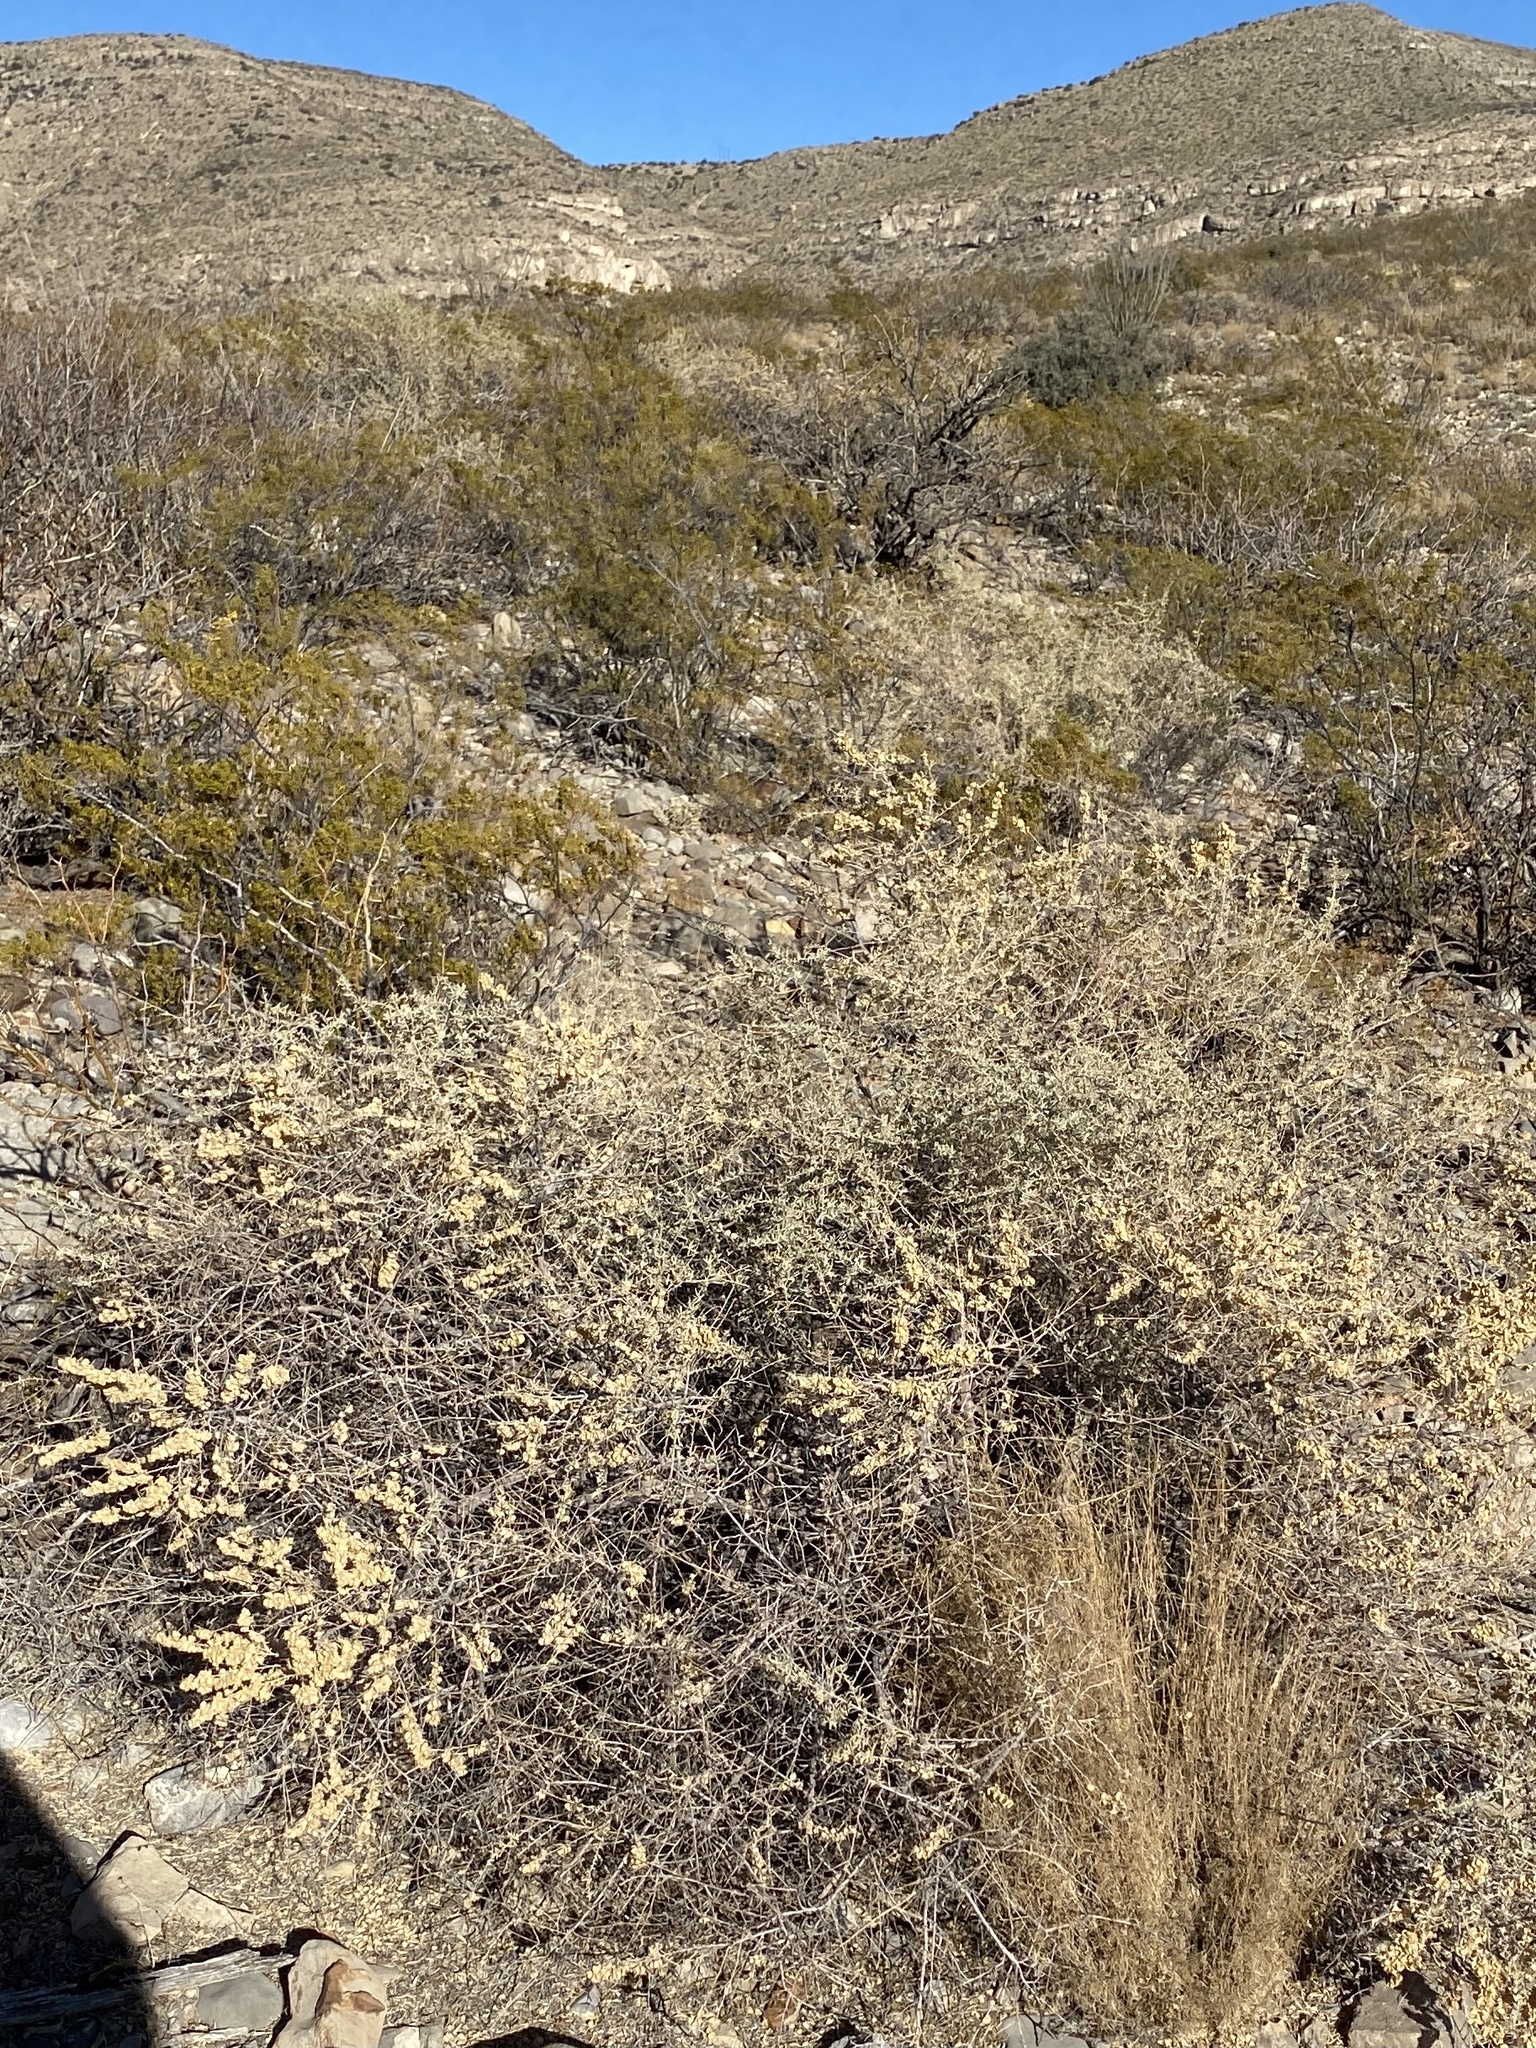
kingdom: Plantae
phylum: Tracheophyta
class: Magnoliopsida
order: Caryophyllales
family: Amaranthaceae
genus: Atriplex
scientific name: Atriplex canescens
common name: Four-wing saltbush
